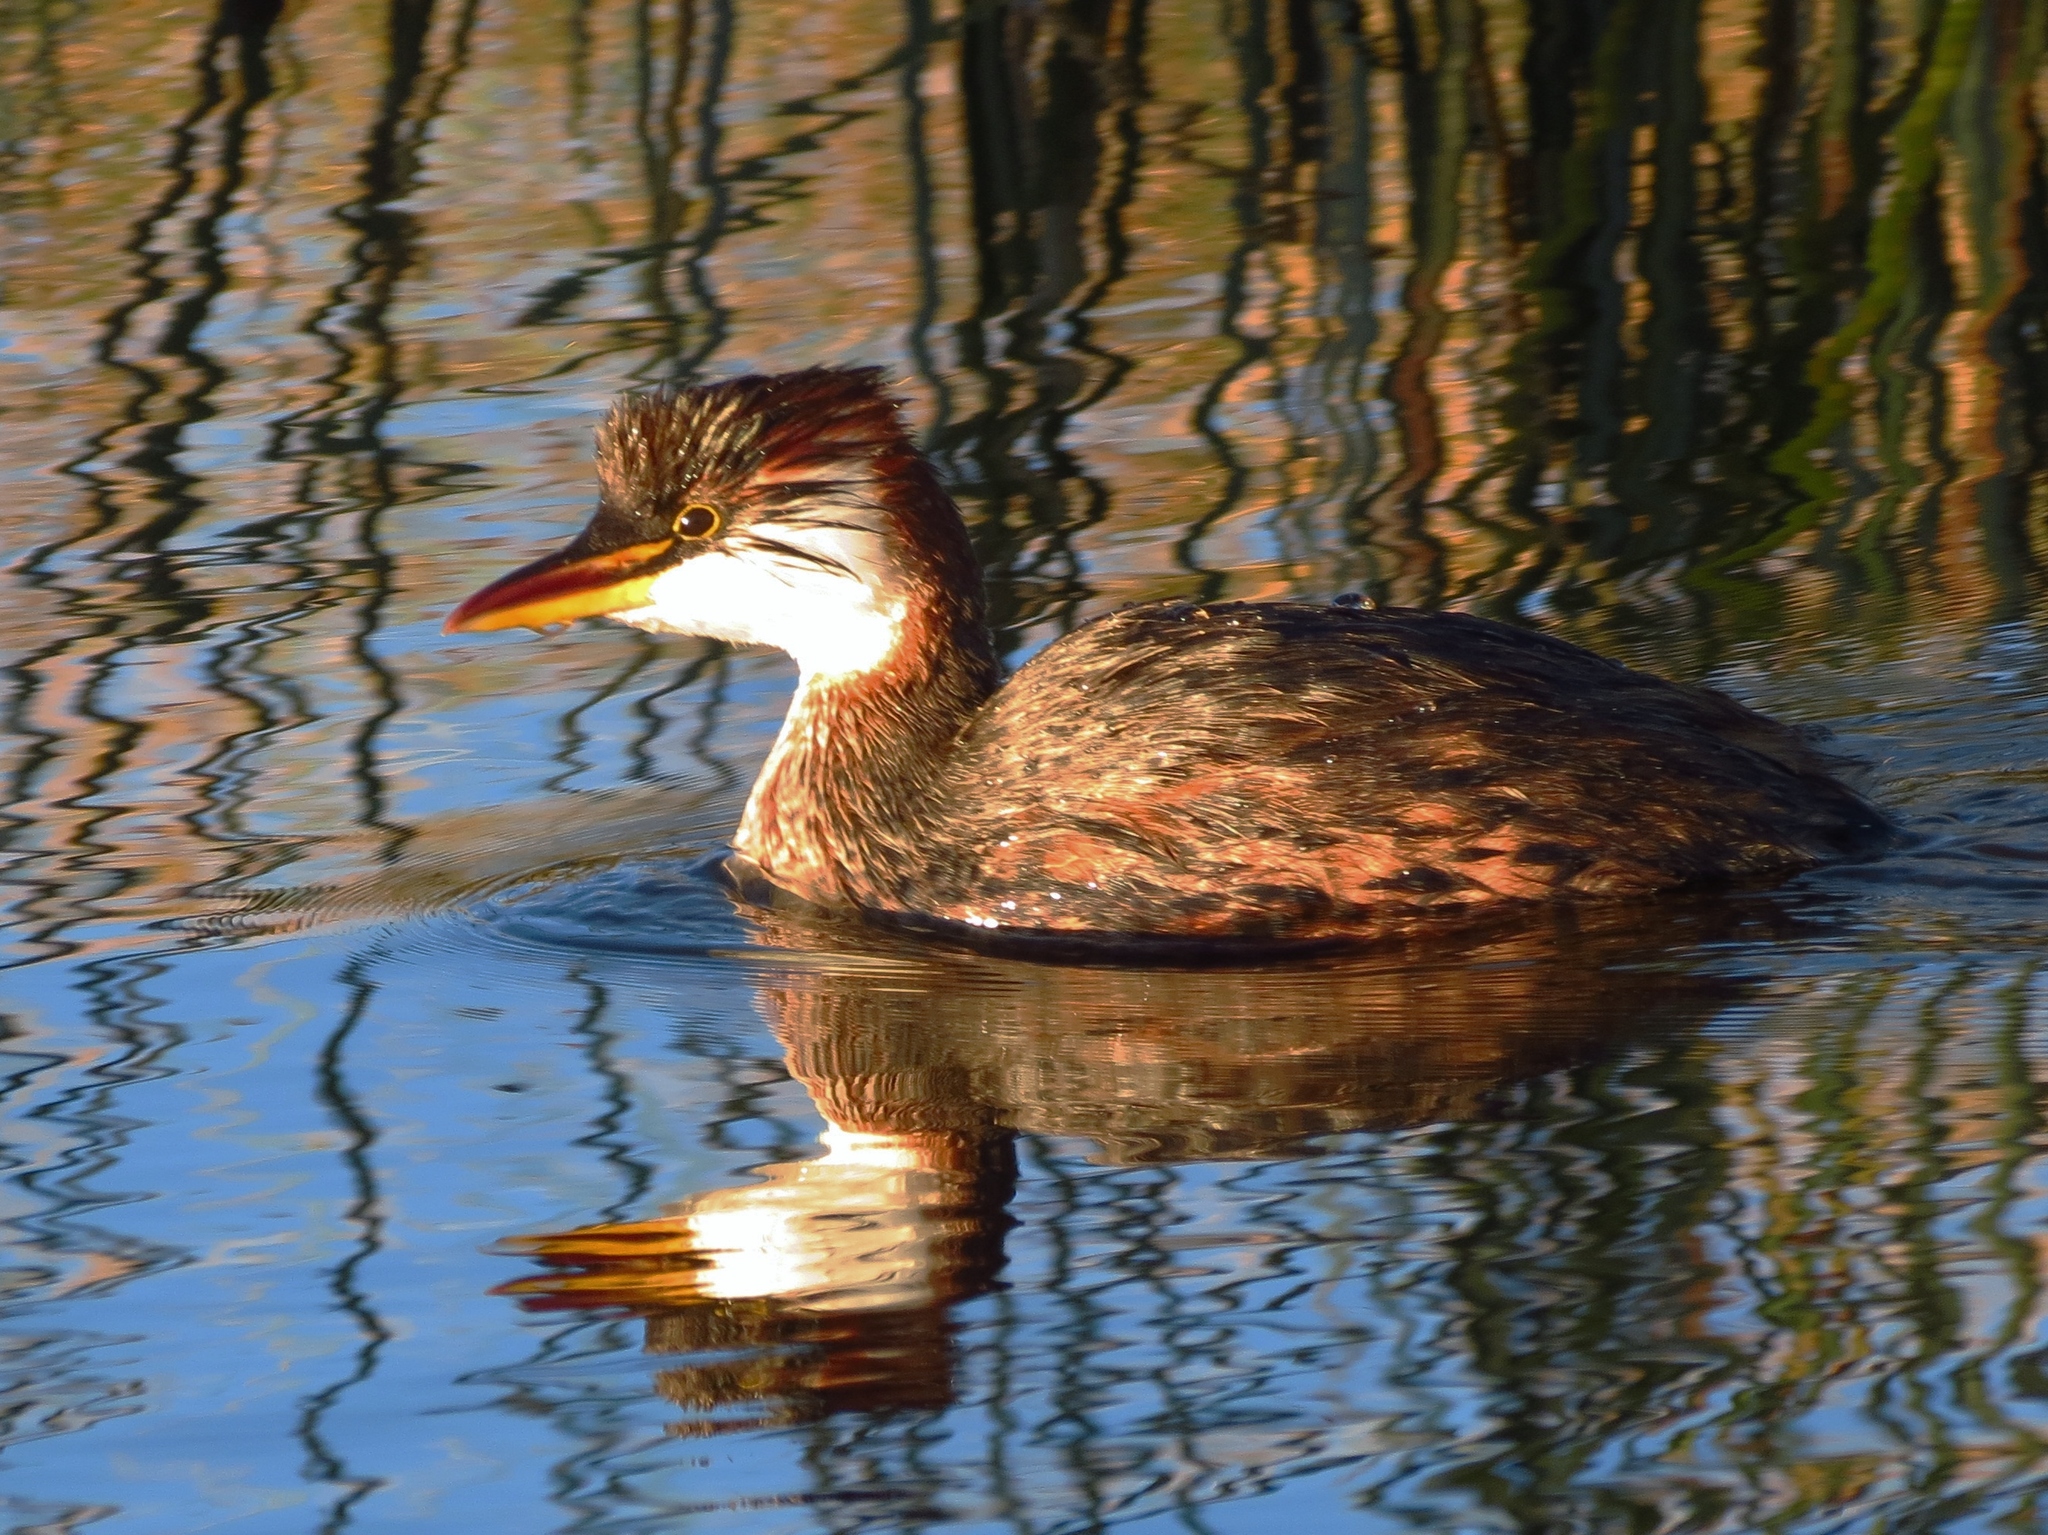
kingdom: Animalia
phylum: Chordata
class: Aves
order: Podicipediformes
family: Podicipedidae
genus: Rollandia
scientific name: Rollandia microptera
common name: Titicaca grebe
